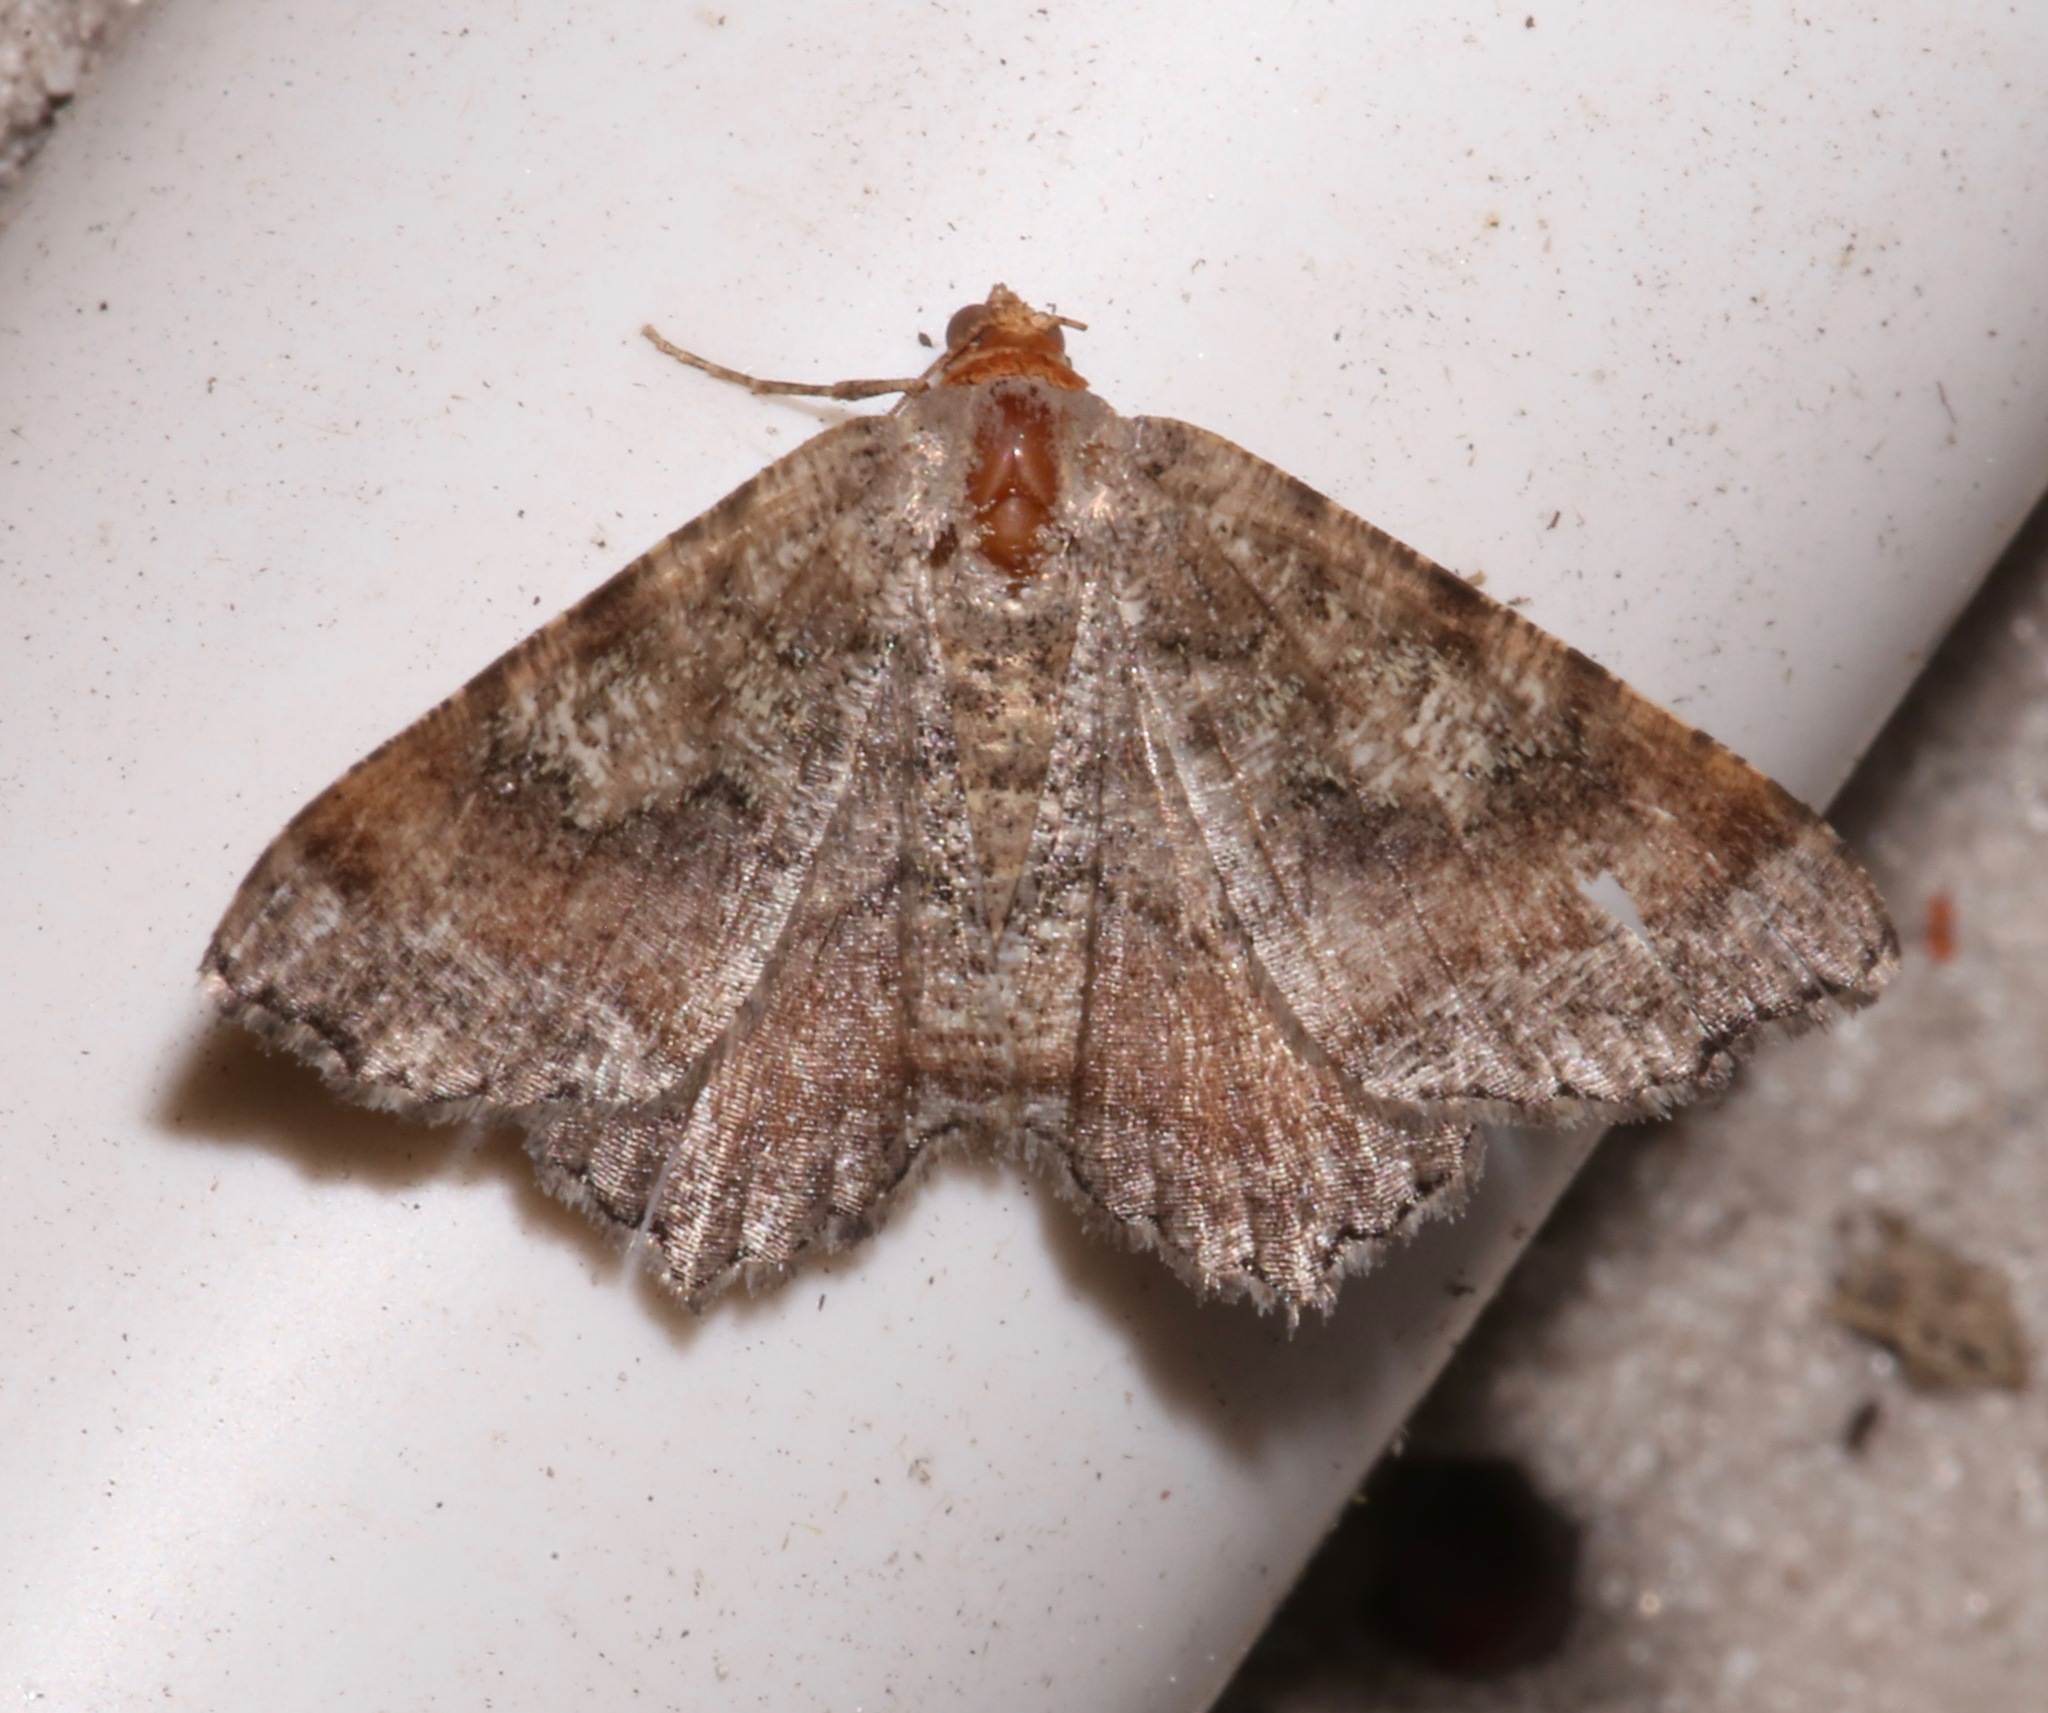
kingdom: Animalia
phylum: Arthropoda
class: Insecta
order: Lepidoptera
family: Geometridae
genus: Macaria
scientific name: Macaria distribuaria
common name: Southern chocolate angle
